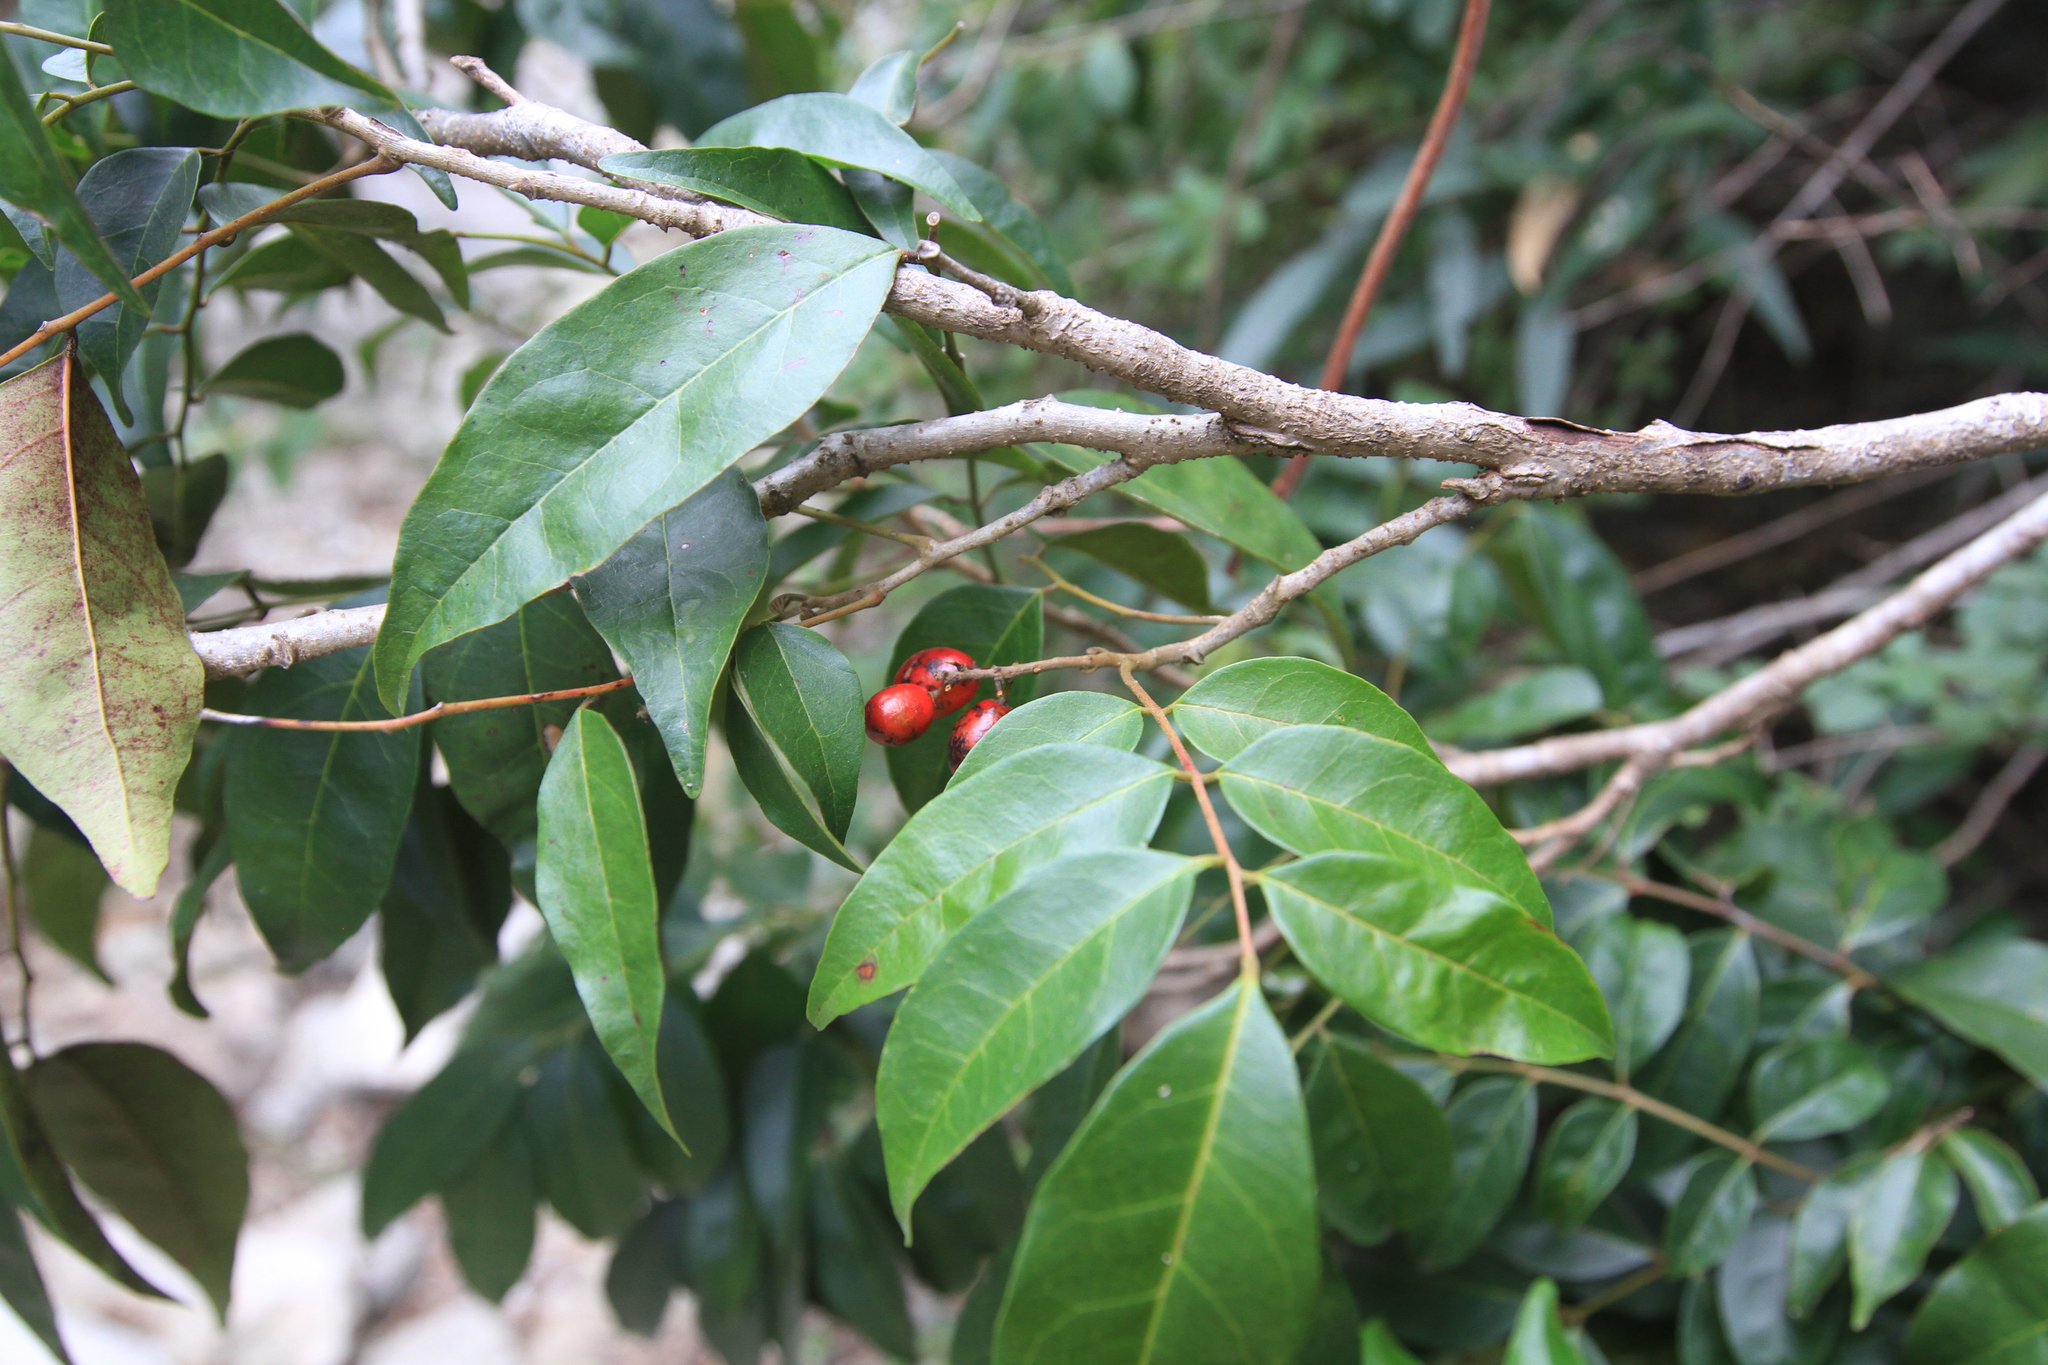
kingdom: Plantae
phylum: Tracheophyta
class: Magnoliopsida
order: Picramniales
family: Picramniaceae
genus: Picramnia
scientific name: Picramnia pentandra
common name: Florida bitterbush
